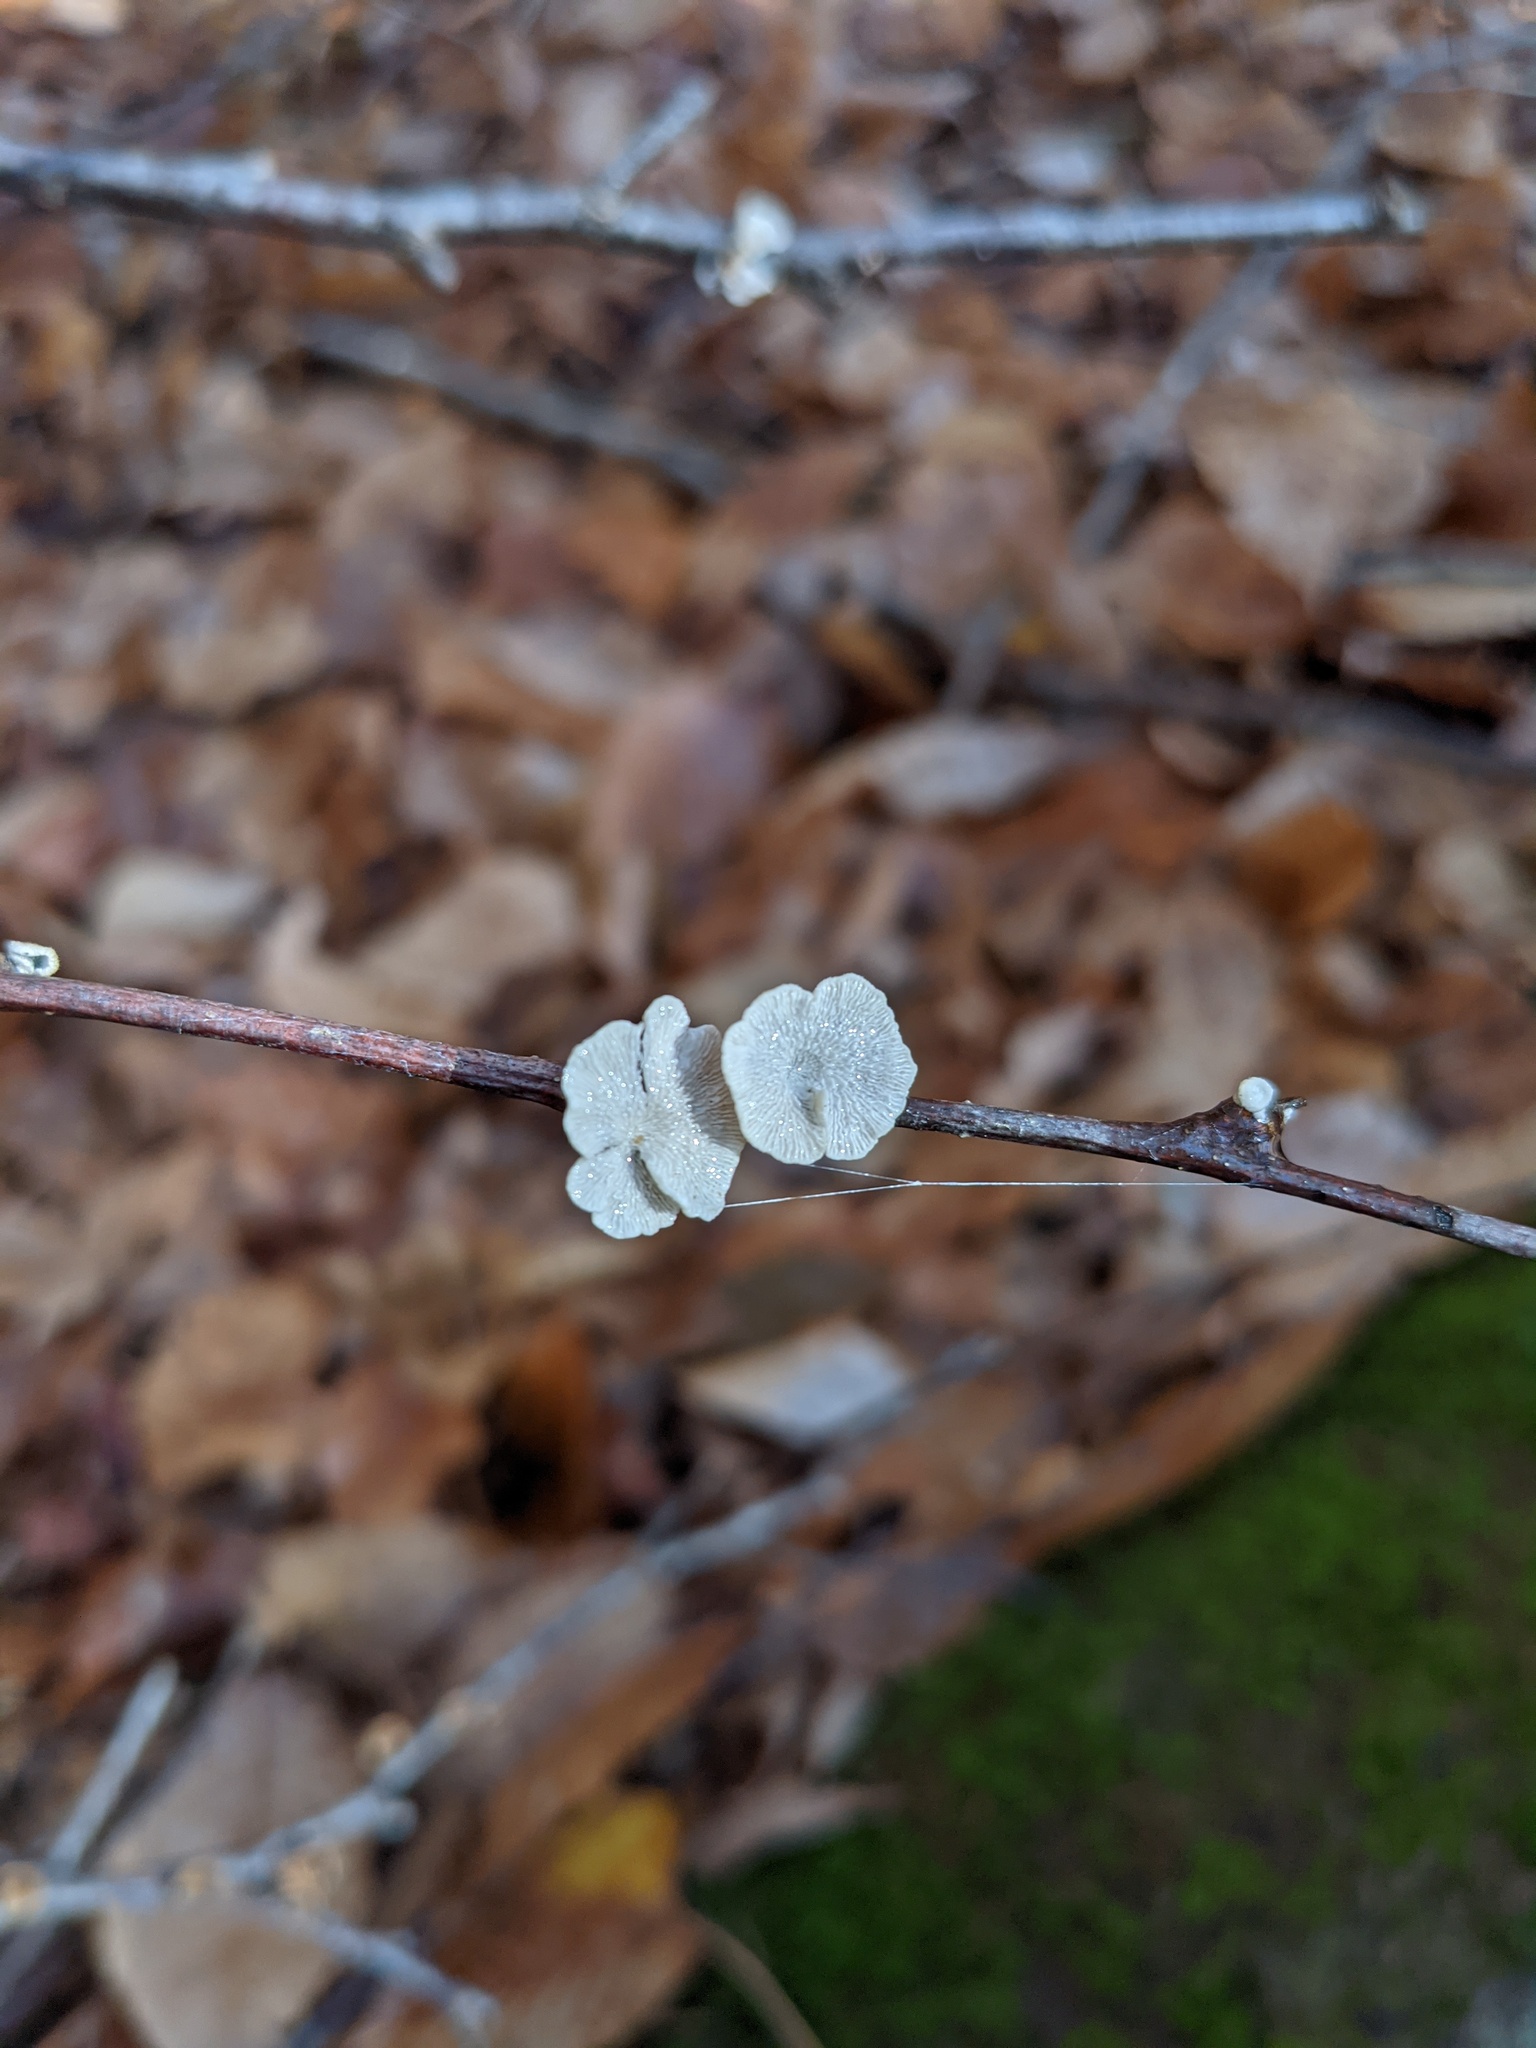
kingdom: Fungi
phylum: Basidiomycota
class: Agaricomycetes
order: Amylocorticiales
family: Amylocorticiaceae
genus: Plicaturopsis
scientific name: Plicaturopsis crispa
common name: Crimped gill
